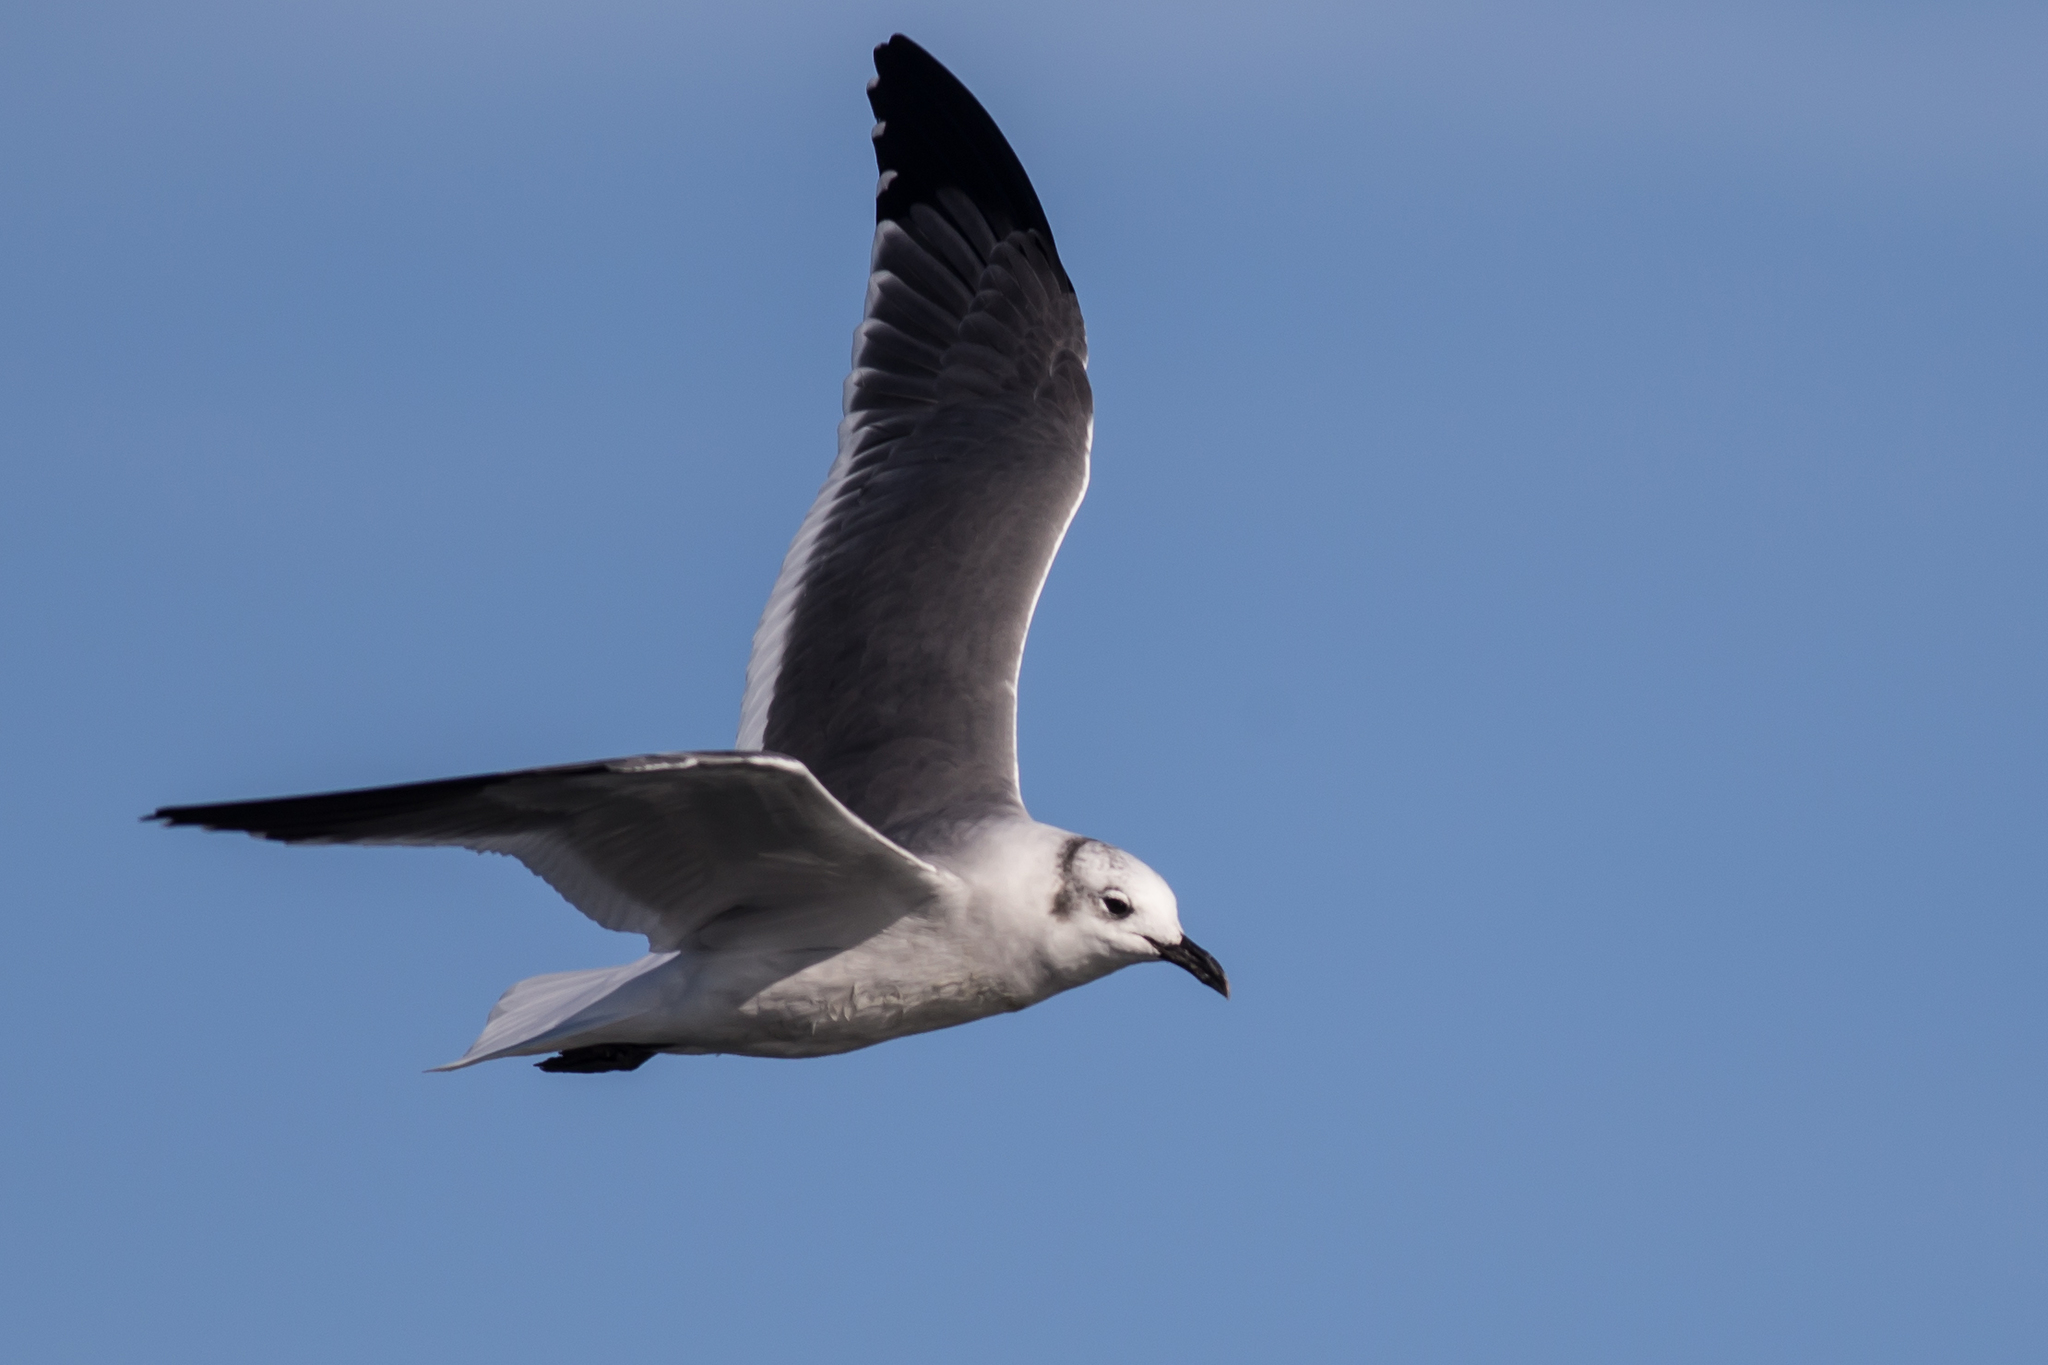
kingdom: Animalia
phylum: Chordata
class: Aves
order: Charadriiformes
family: Laridae
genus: Leucophaeus
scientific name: Leucophaeus atricilla
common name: Laughing gull
